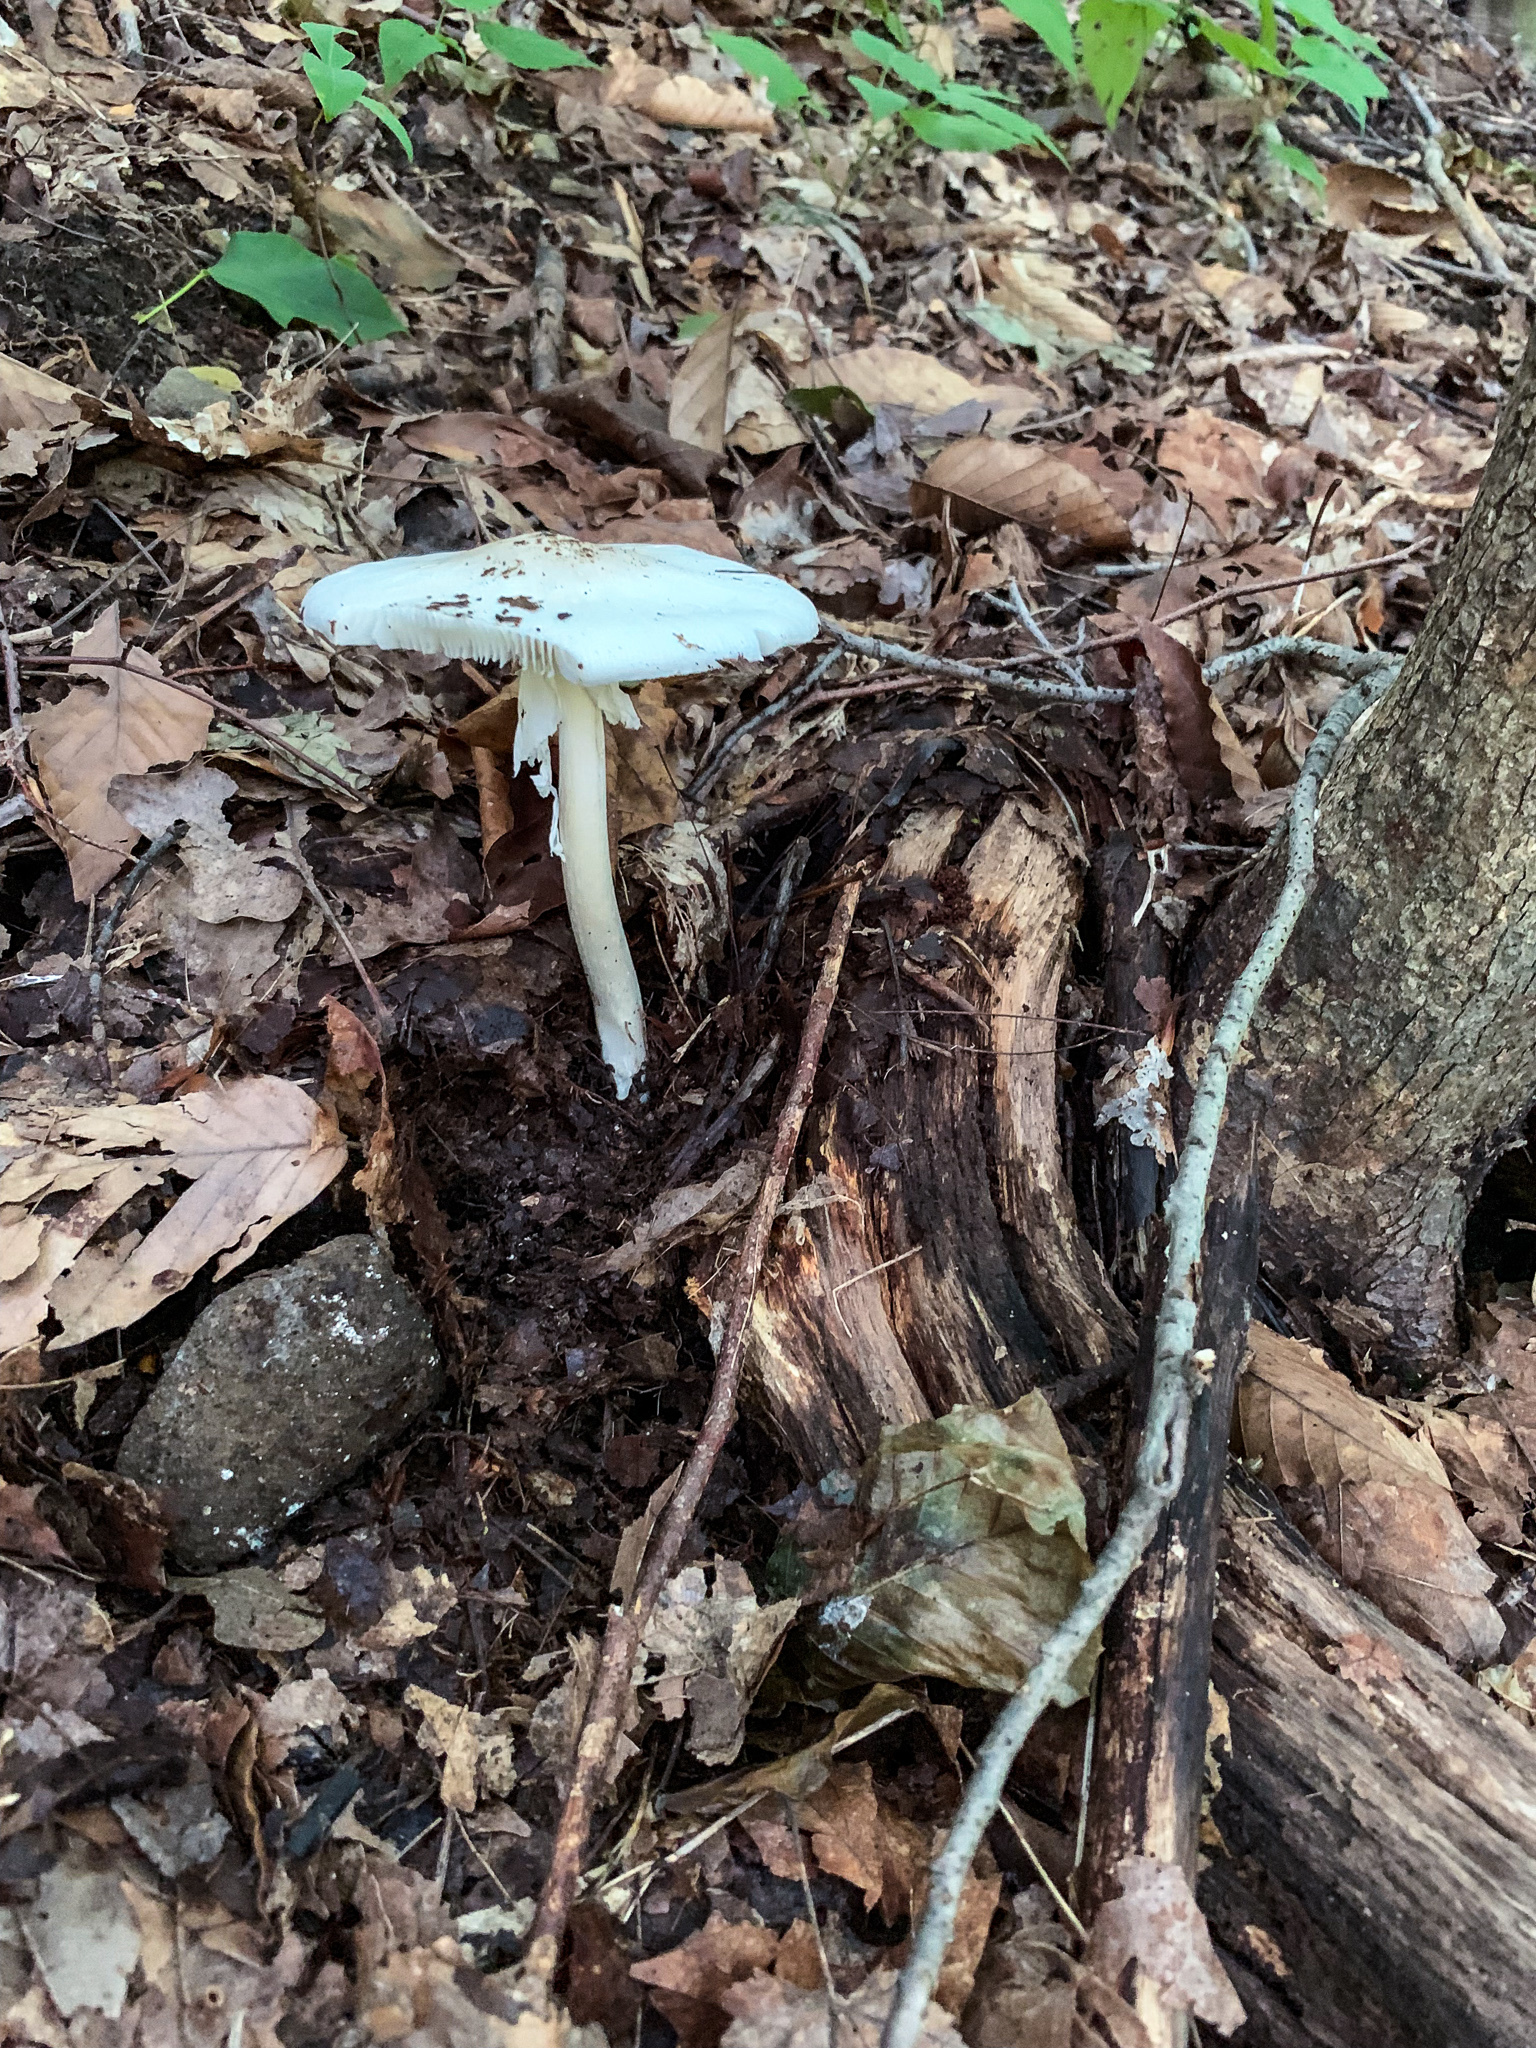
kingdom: Fungi
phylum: Basidiomycota
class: Agaricomycetes
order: Agaricales
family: Amanitaceae
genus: Amanita
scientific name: Amanita bisporigera
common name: Eastern north american destroying angel
